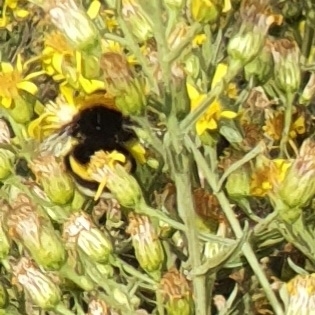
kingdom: Animalia
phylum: Arthropoda
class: Insecta
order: Hymenoptera
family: Apidae
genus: Bombus
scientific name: Bombus terrestris
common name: Buff-tailed bumblebee
